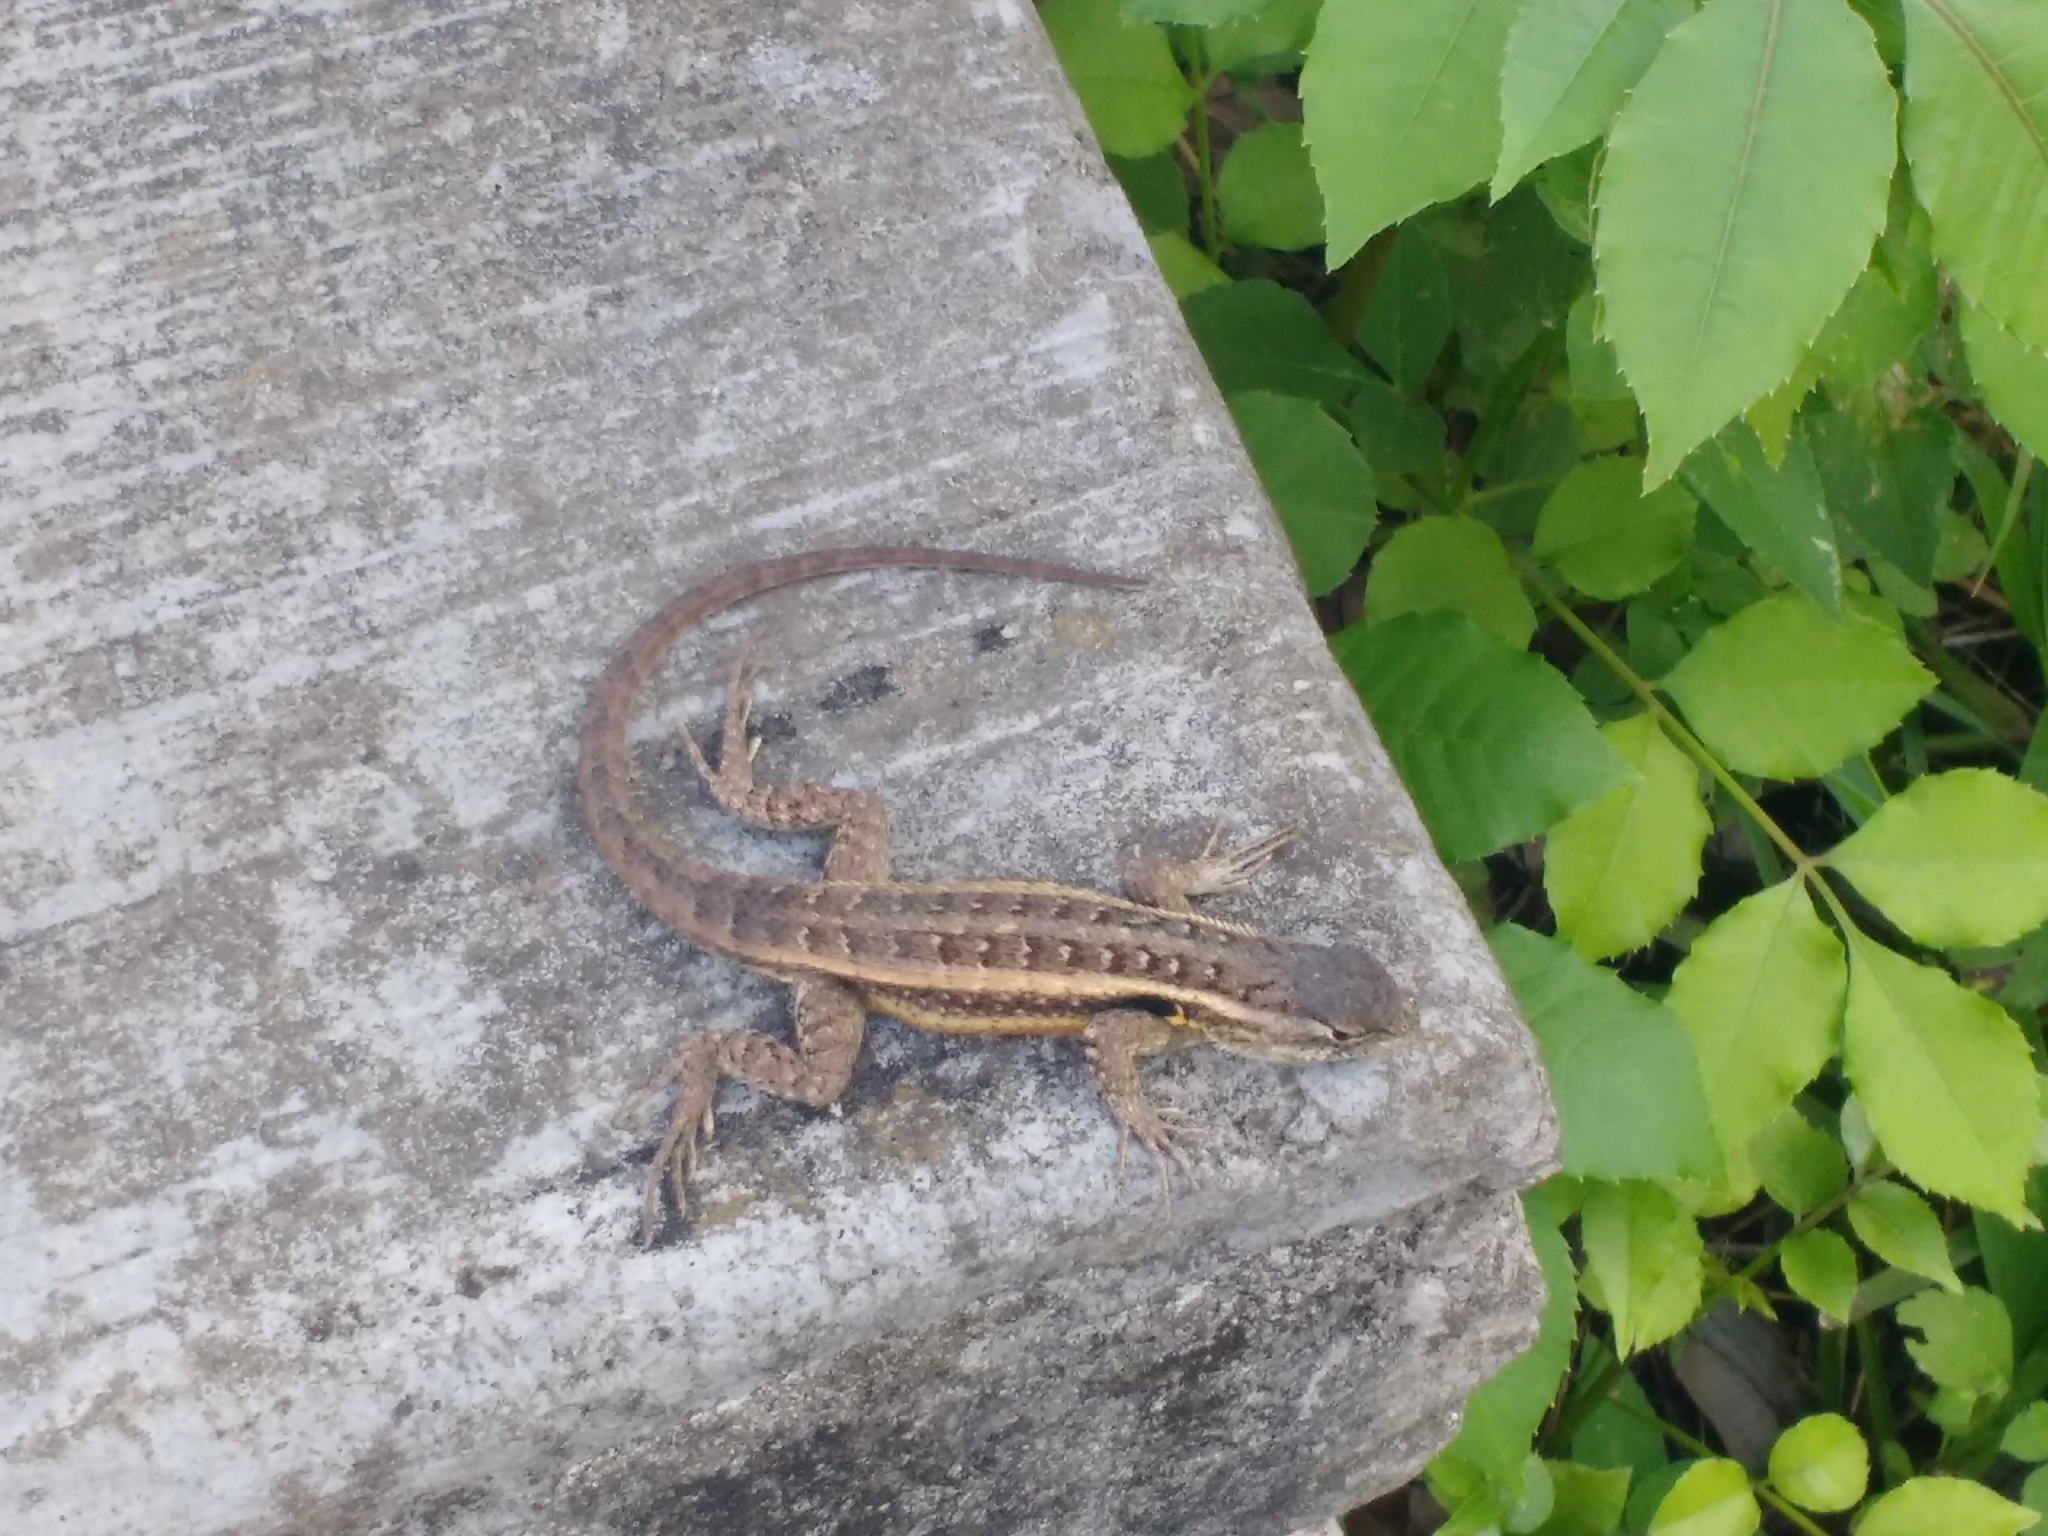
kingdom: Animalia
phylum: Chordata
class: Squamata
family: Phrynosomatidae
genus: Sceloporus
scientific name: Sceloporus variabilis
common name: Rosebelly lizard
